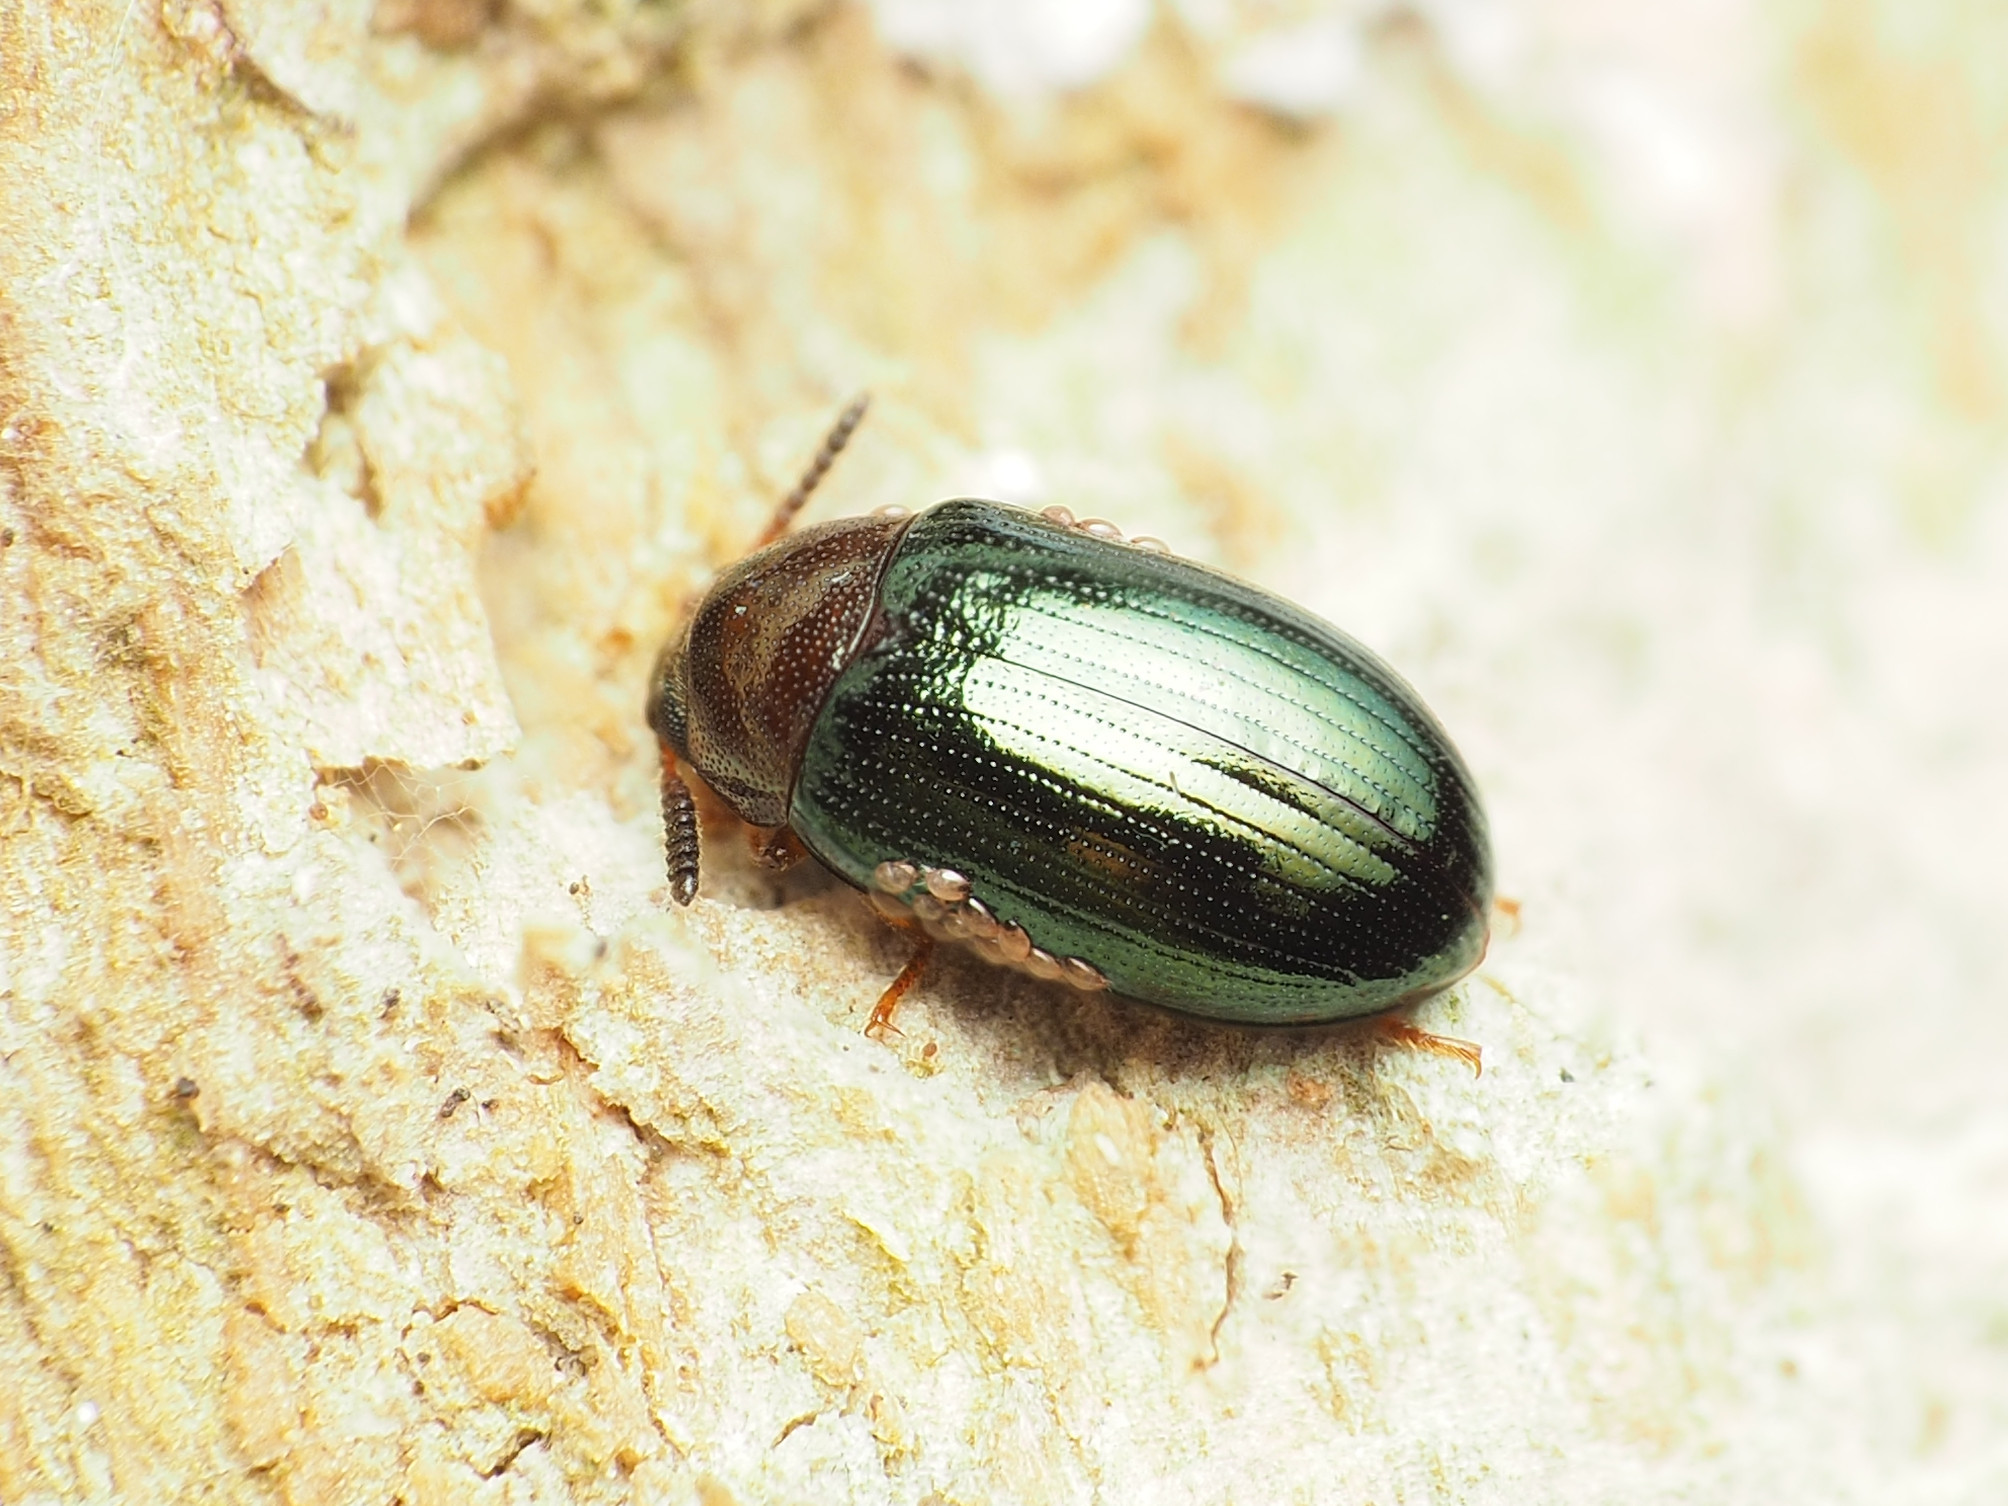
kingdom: Animalia
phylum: Arthropoda
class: Insecta
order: Coleoptera
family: Tenebrionidae
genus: Neomida
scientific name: Neomida bicornis
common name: Two-horned darkling beetle
